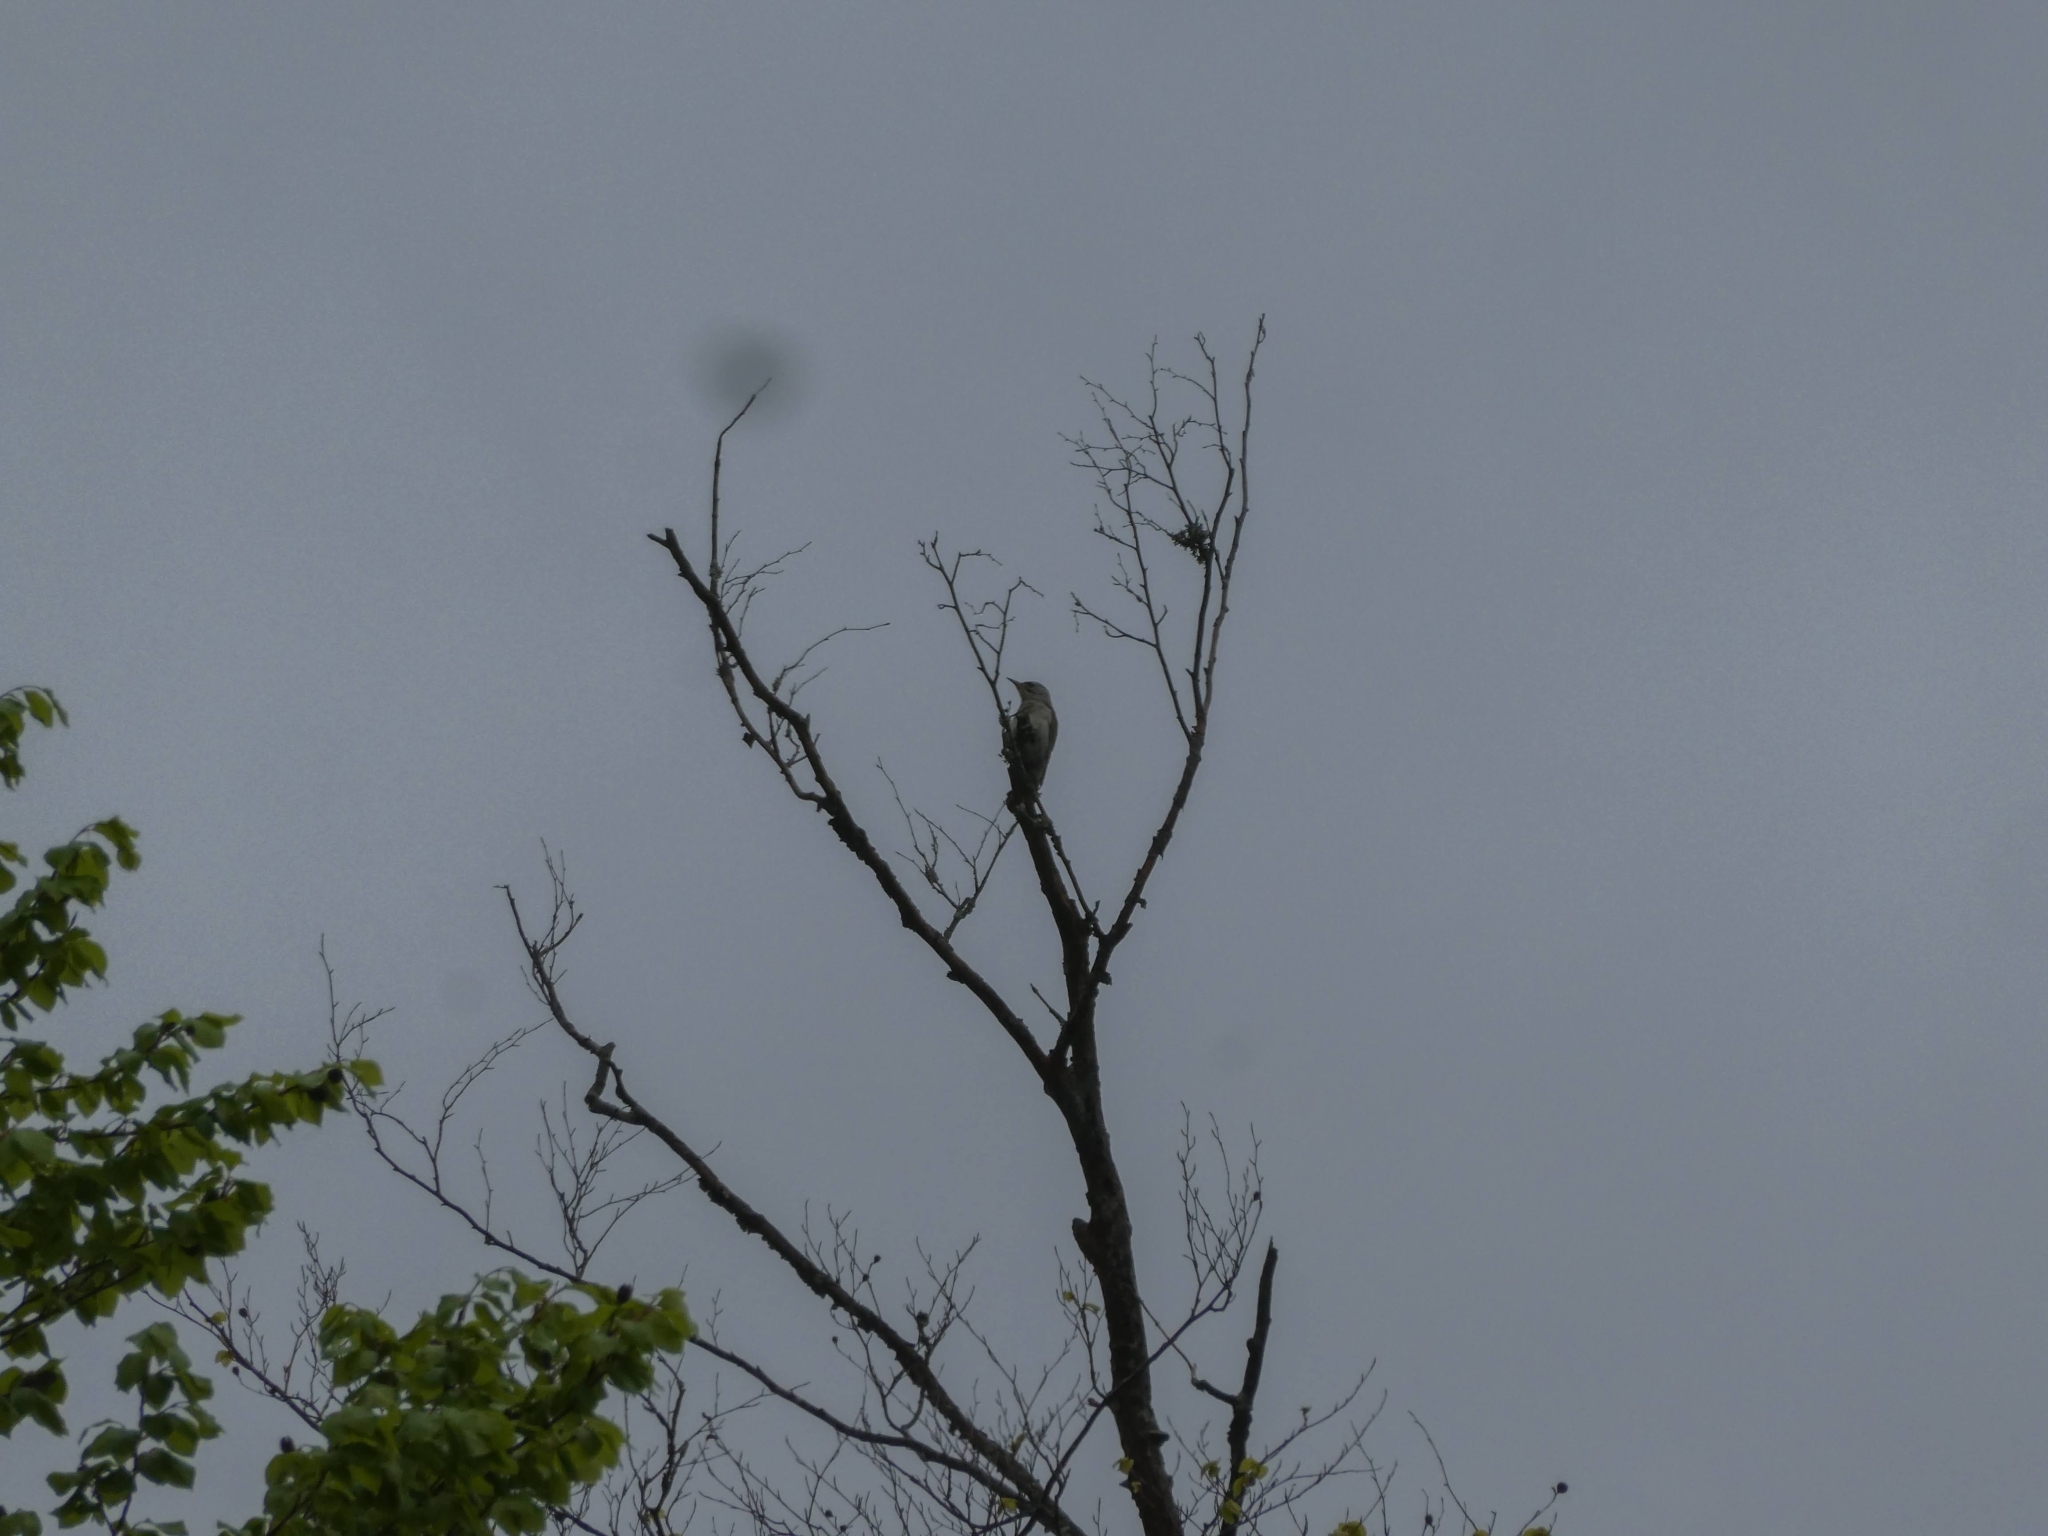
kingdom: Animalia
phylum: Chordata
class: Aves
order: Piciformes
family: Picidae
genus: Picus
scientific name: Picus canus
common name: Grey-headed woodpecker
